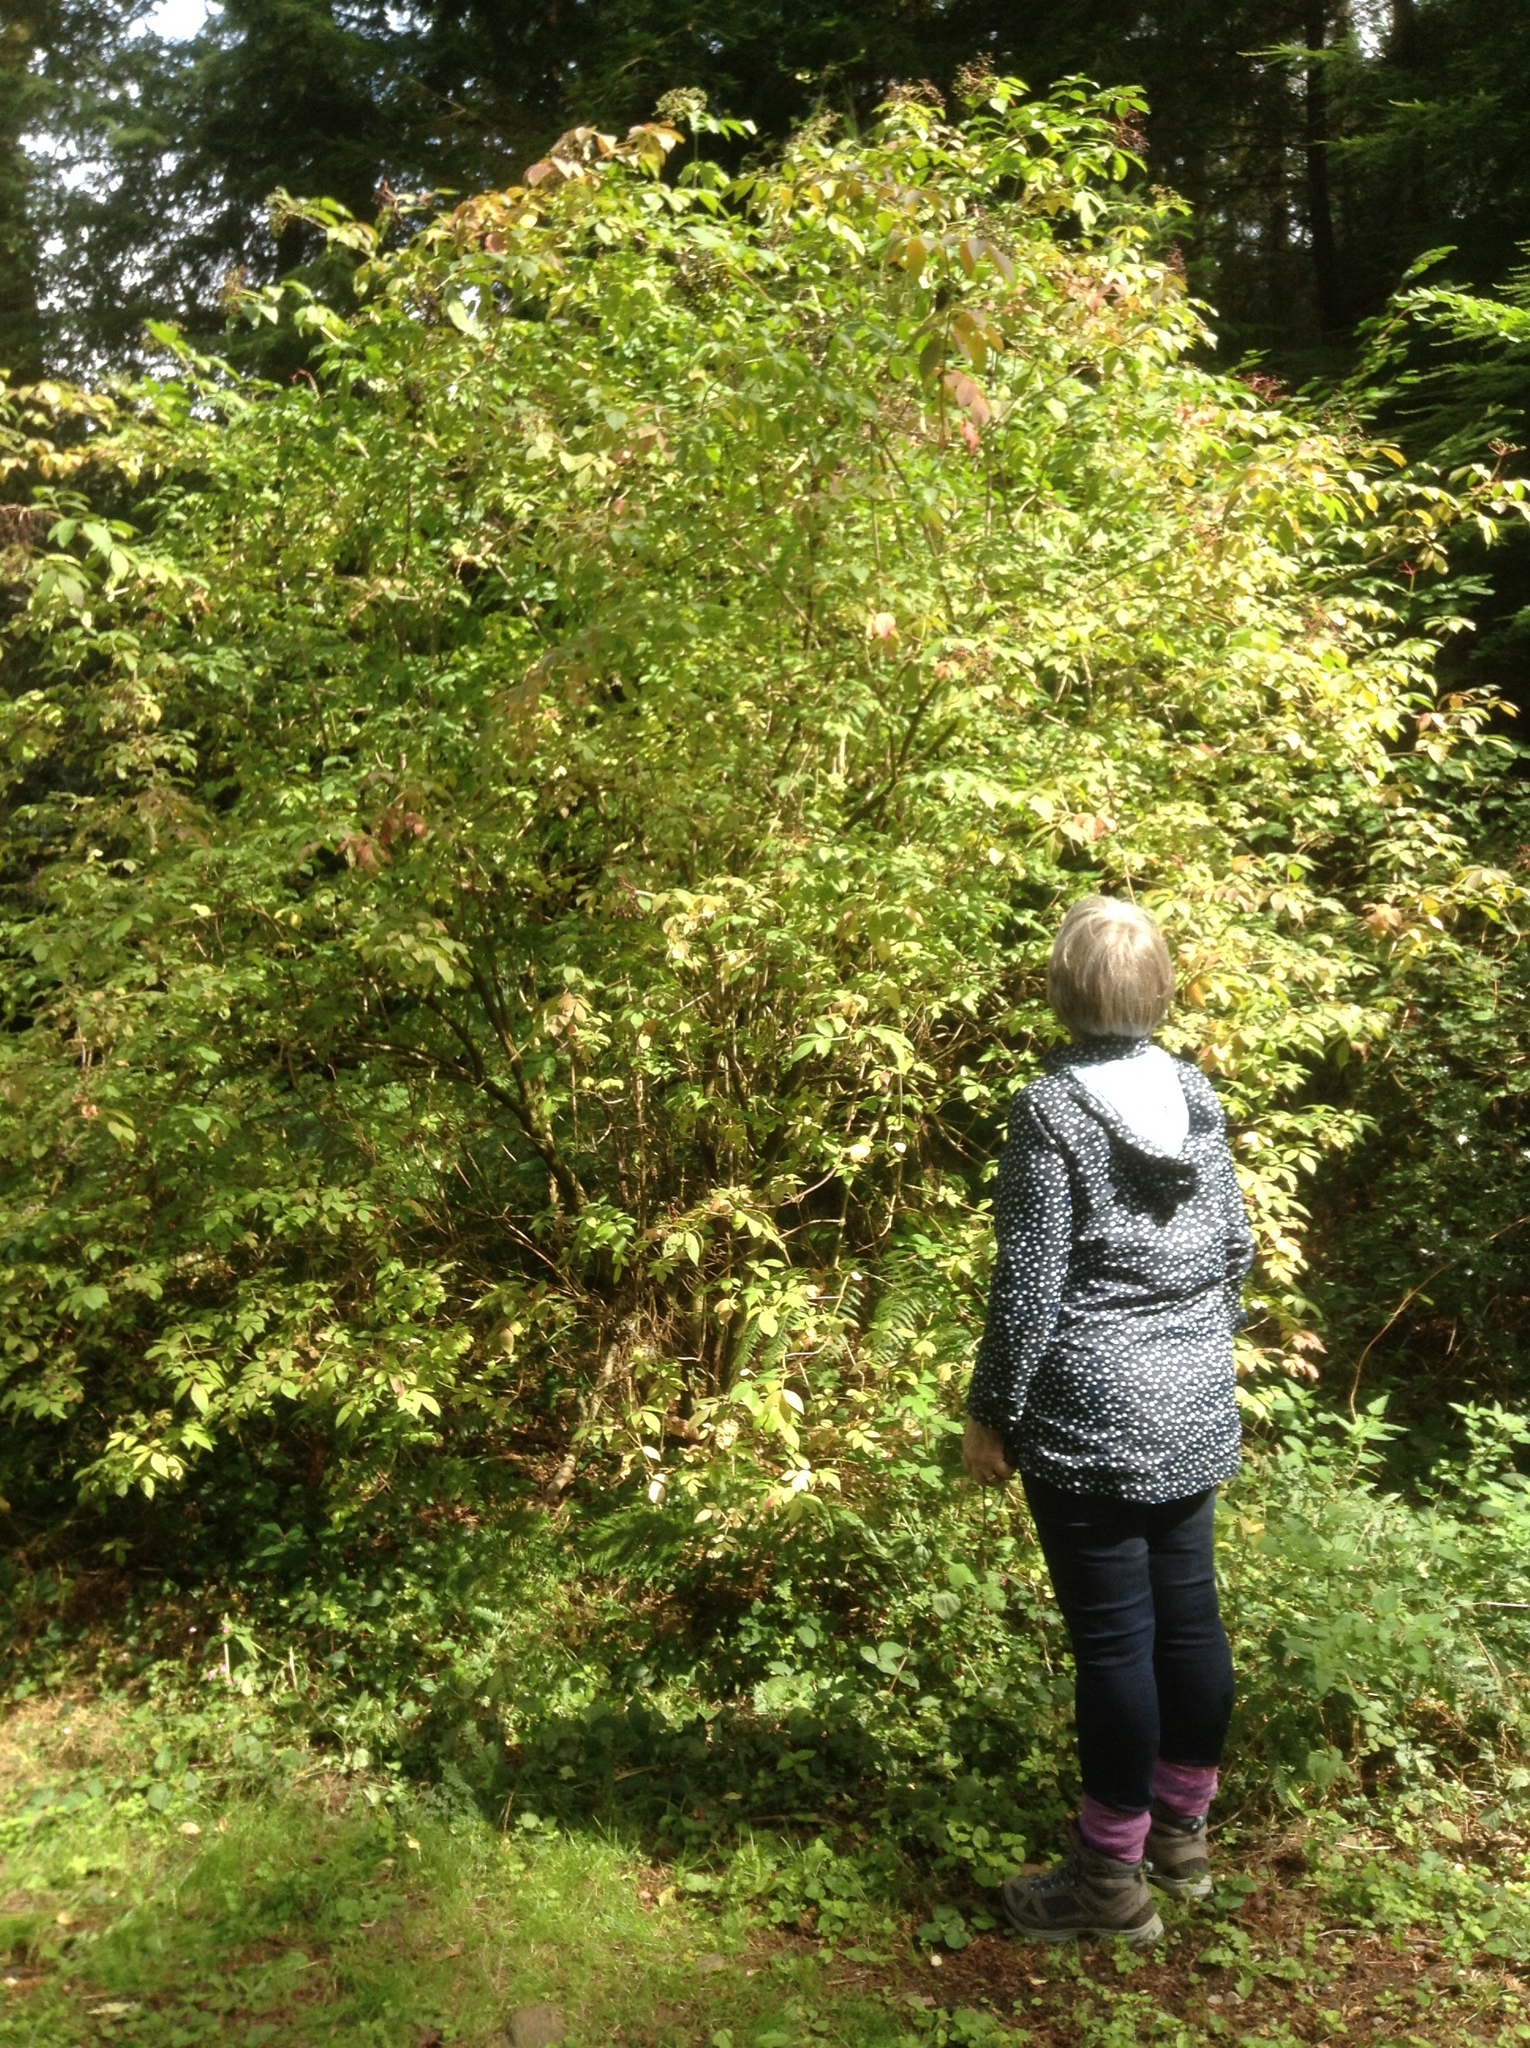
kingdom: Plantae
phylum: Tracheophyta
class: Magnoliopsida
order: Dipsacales
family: Viburnaceae
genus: Sambucus
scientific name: Sambucus nigra
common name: Elder
